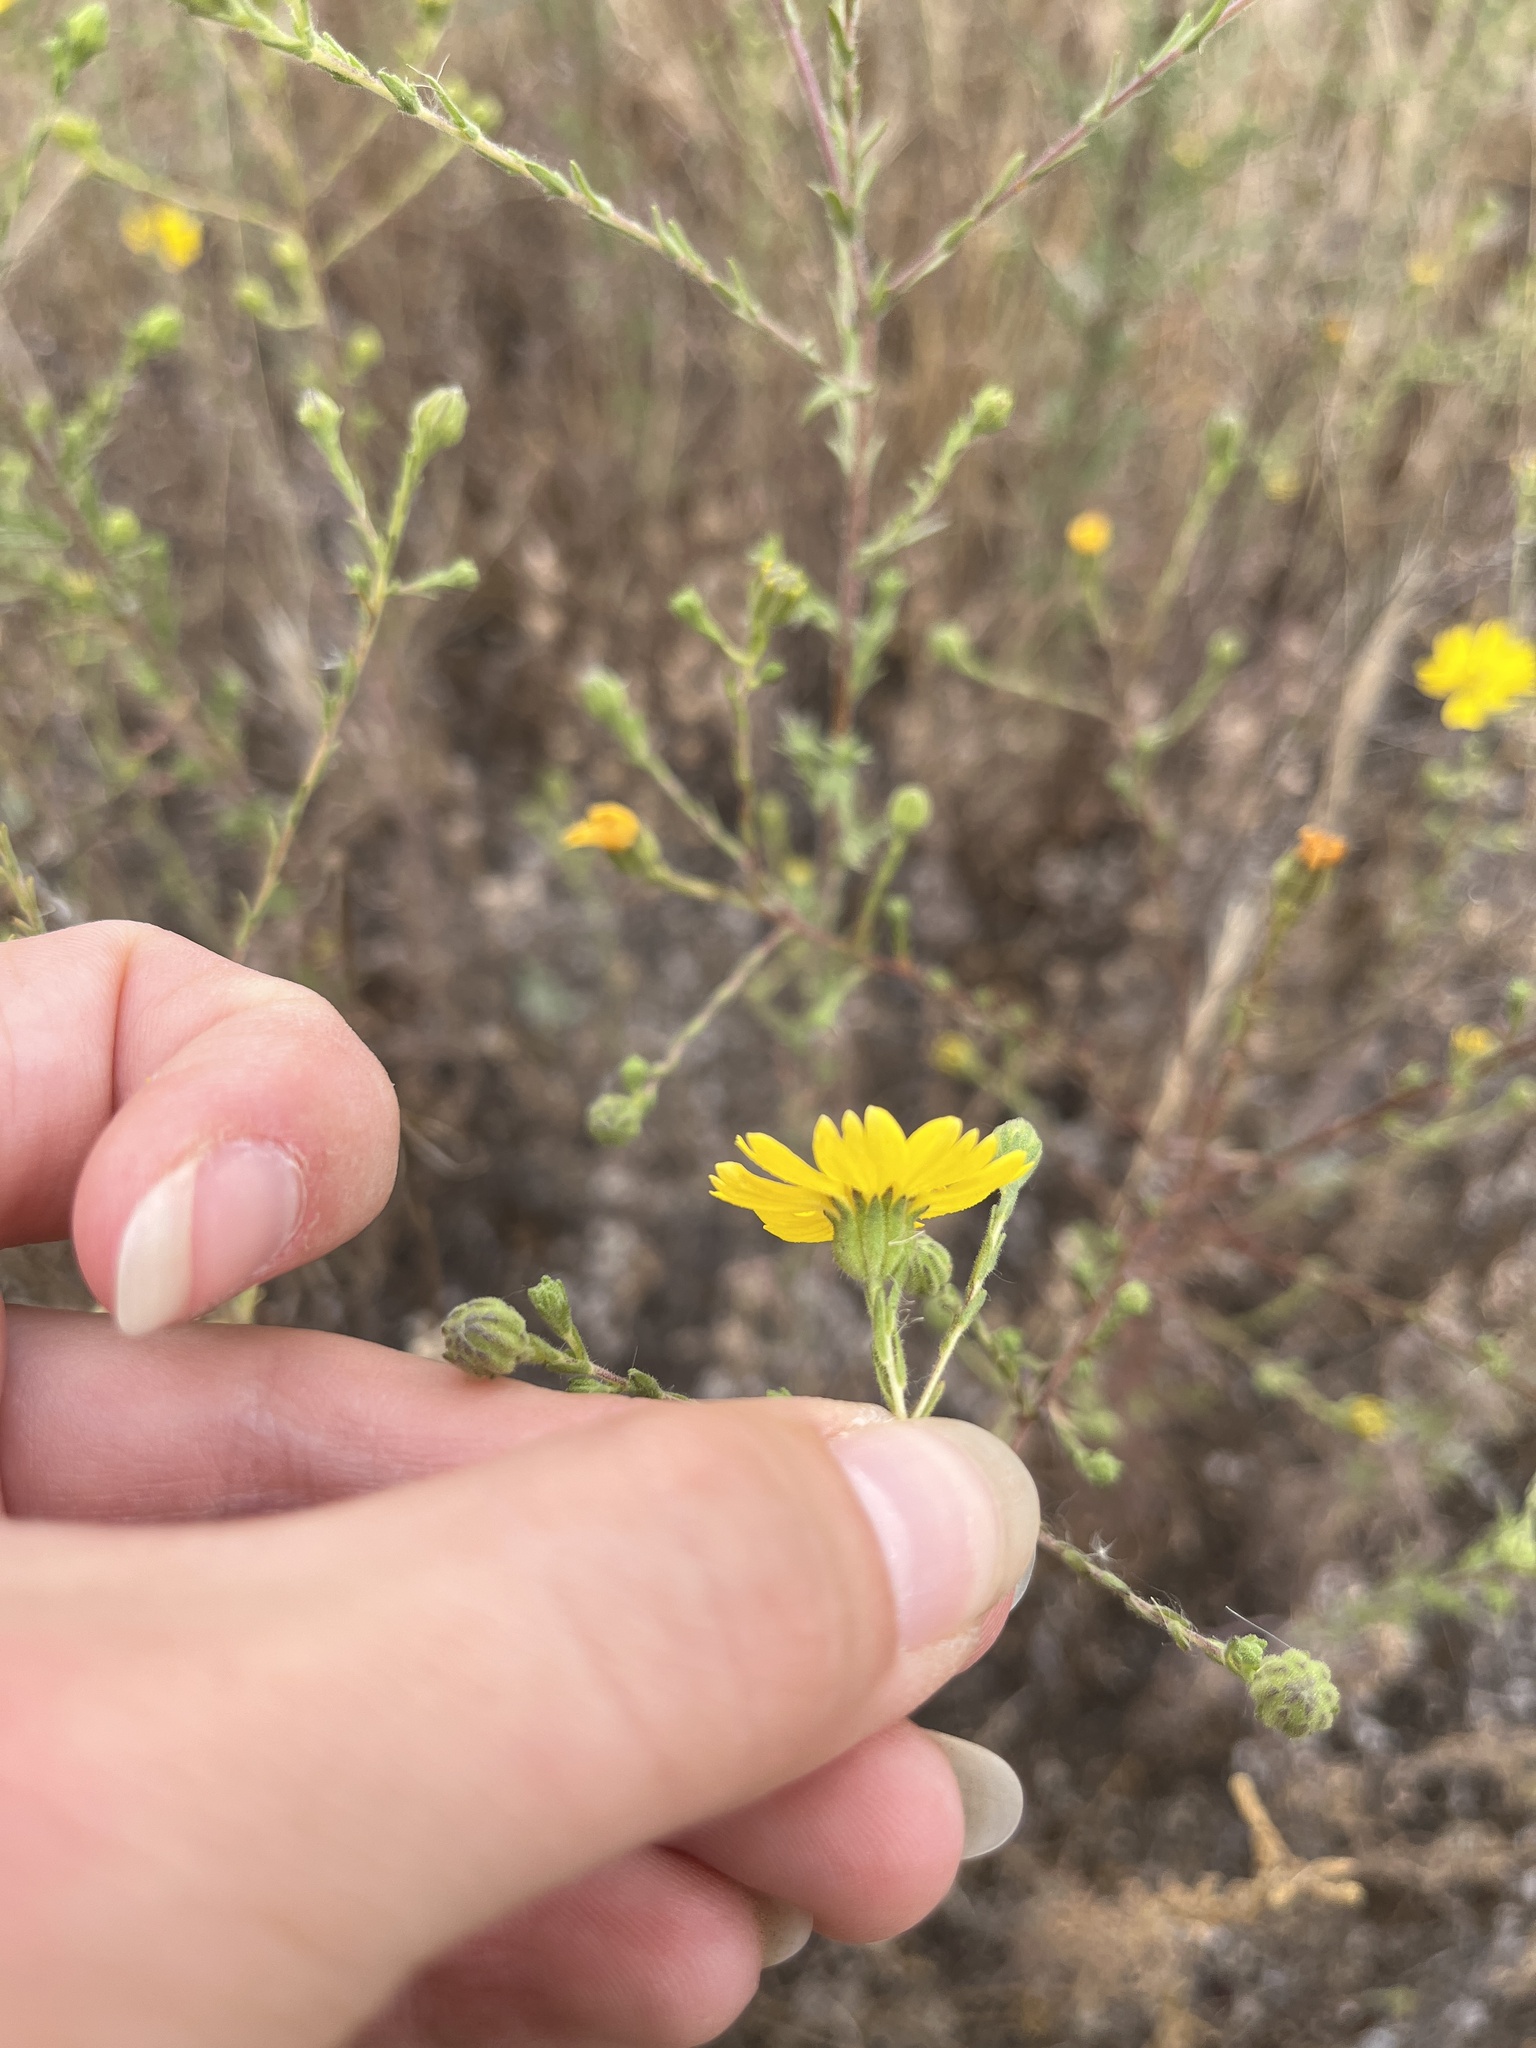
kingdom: Plantae
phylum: Tracheophyta
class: Magnoliopsida
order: Asterales
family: Asteraceae
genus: Deinandra
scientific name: Deinandra paniculata
